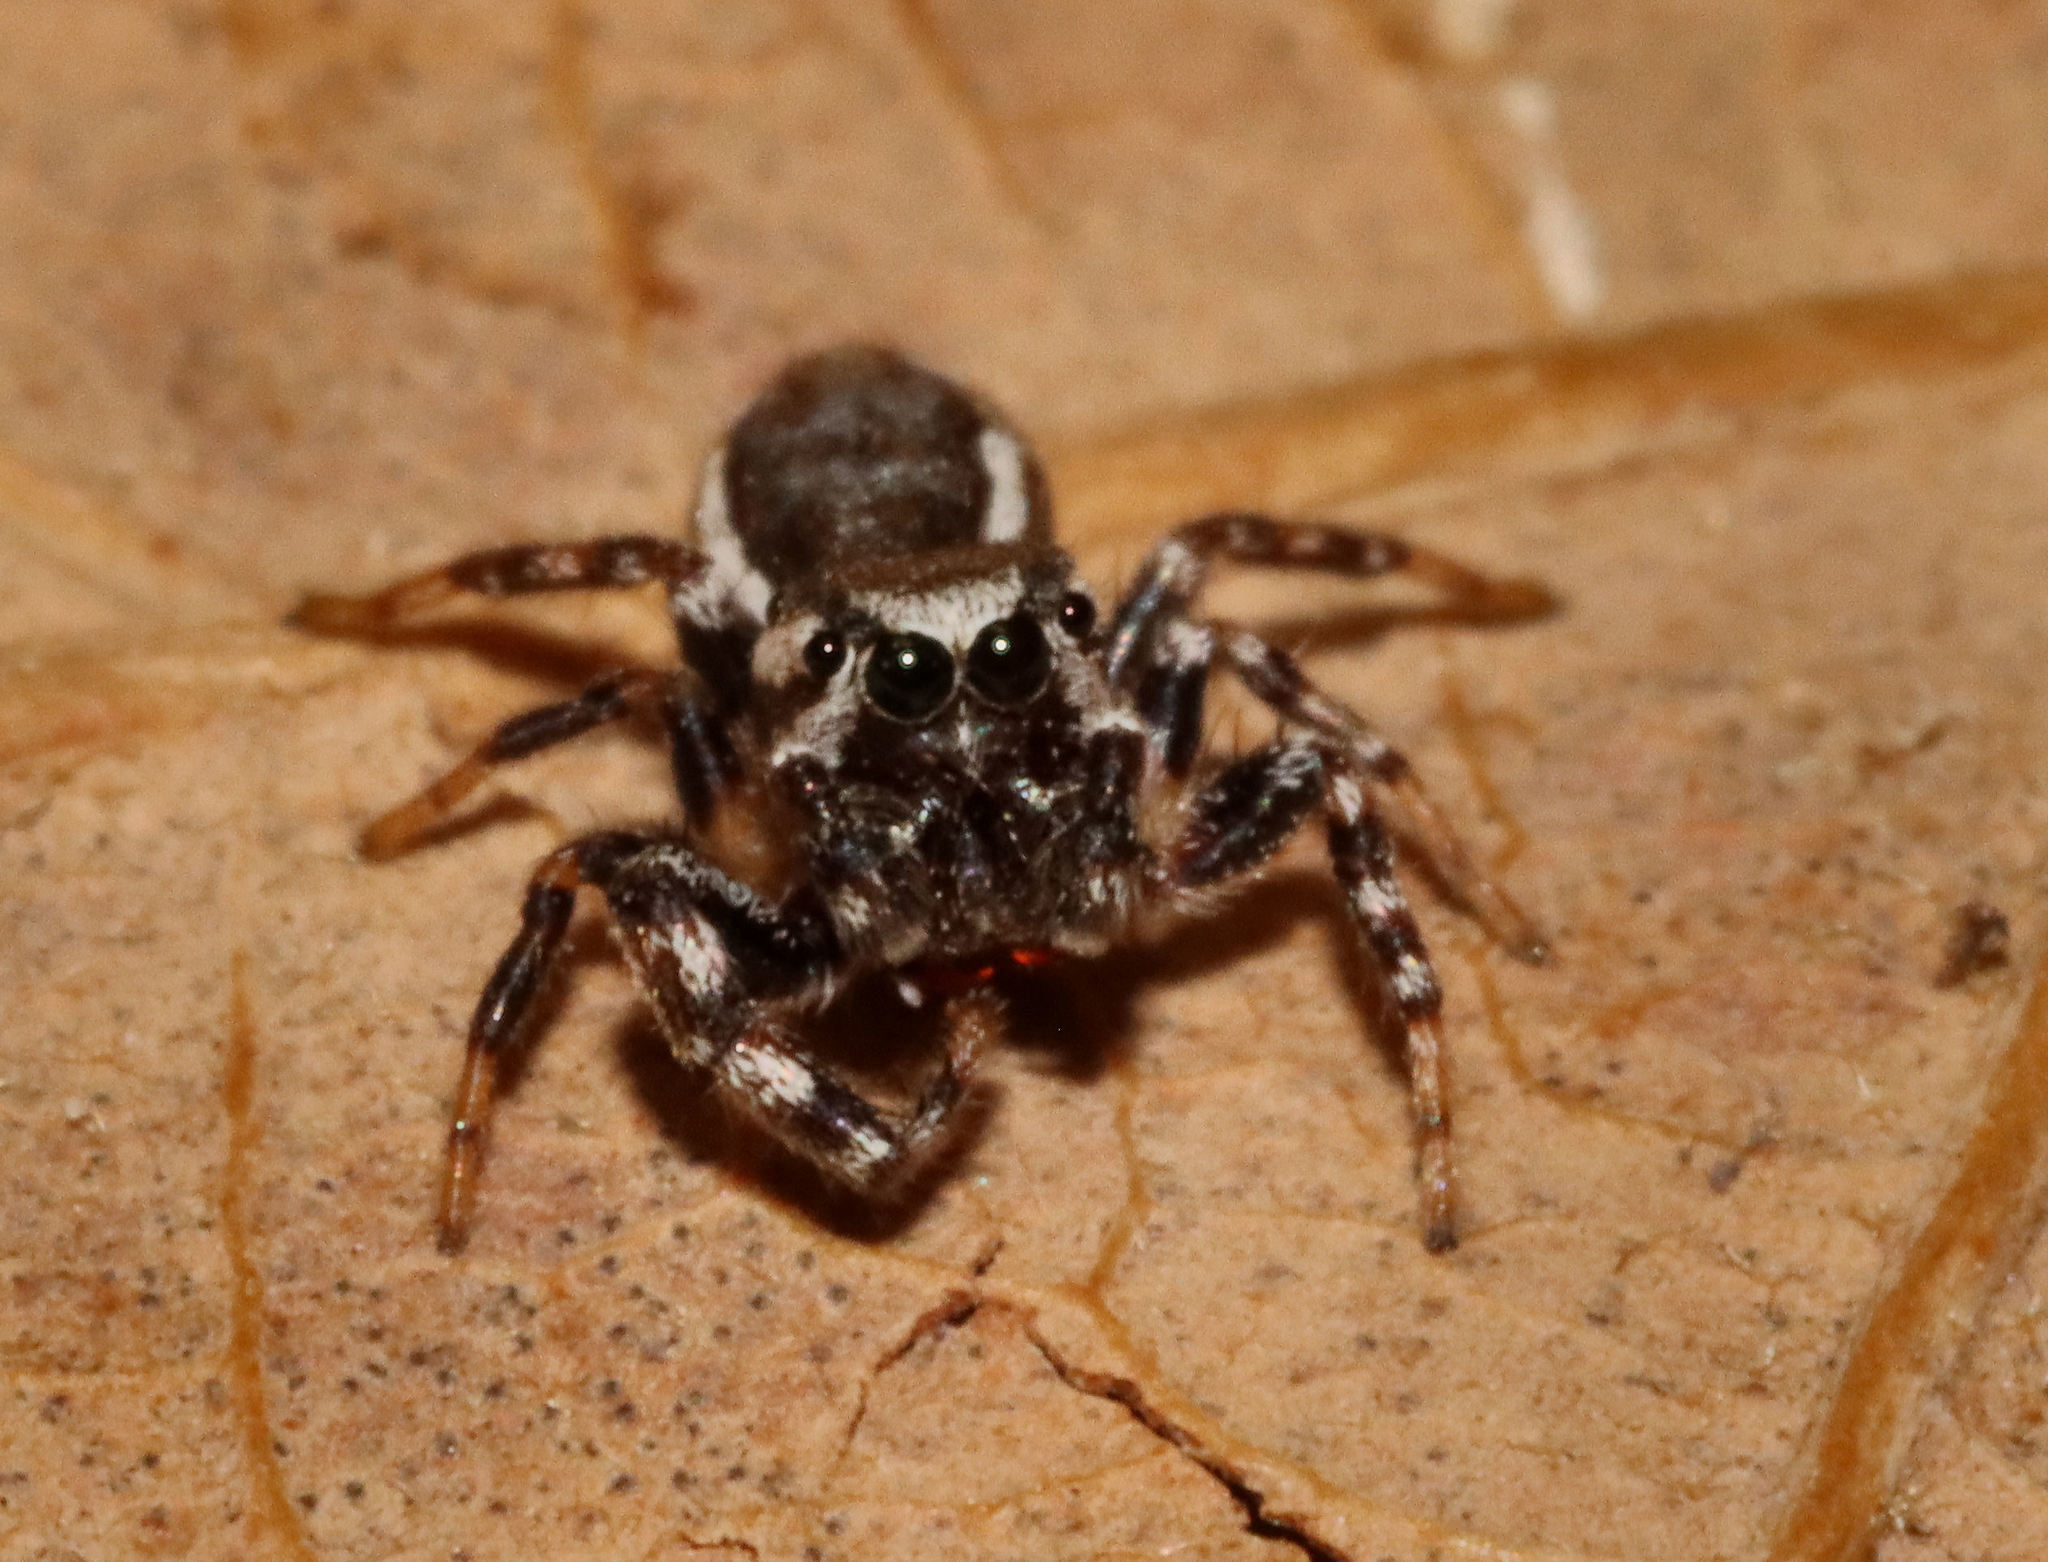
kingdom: Animalia
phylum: Arthropoda
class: Arachnida
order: Araneae
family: Salticidae
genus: Pelegrina
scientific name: Pelegrina proterva
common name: Common white-cheeked jumping spider
